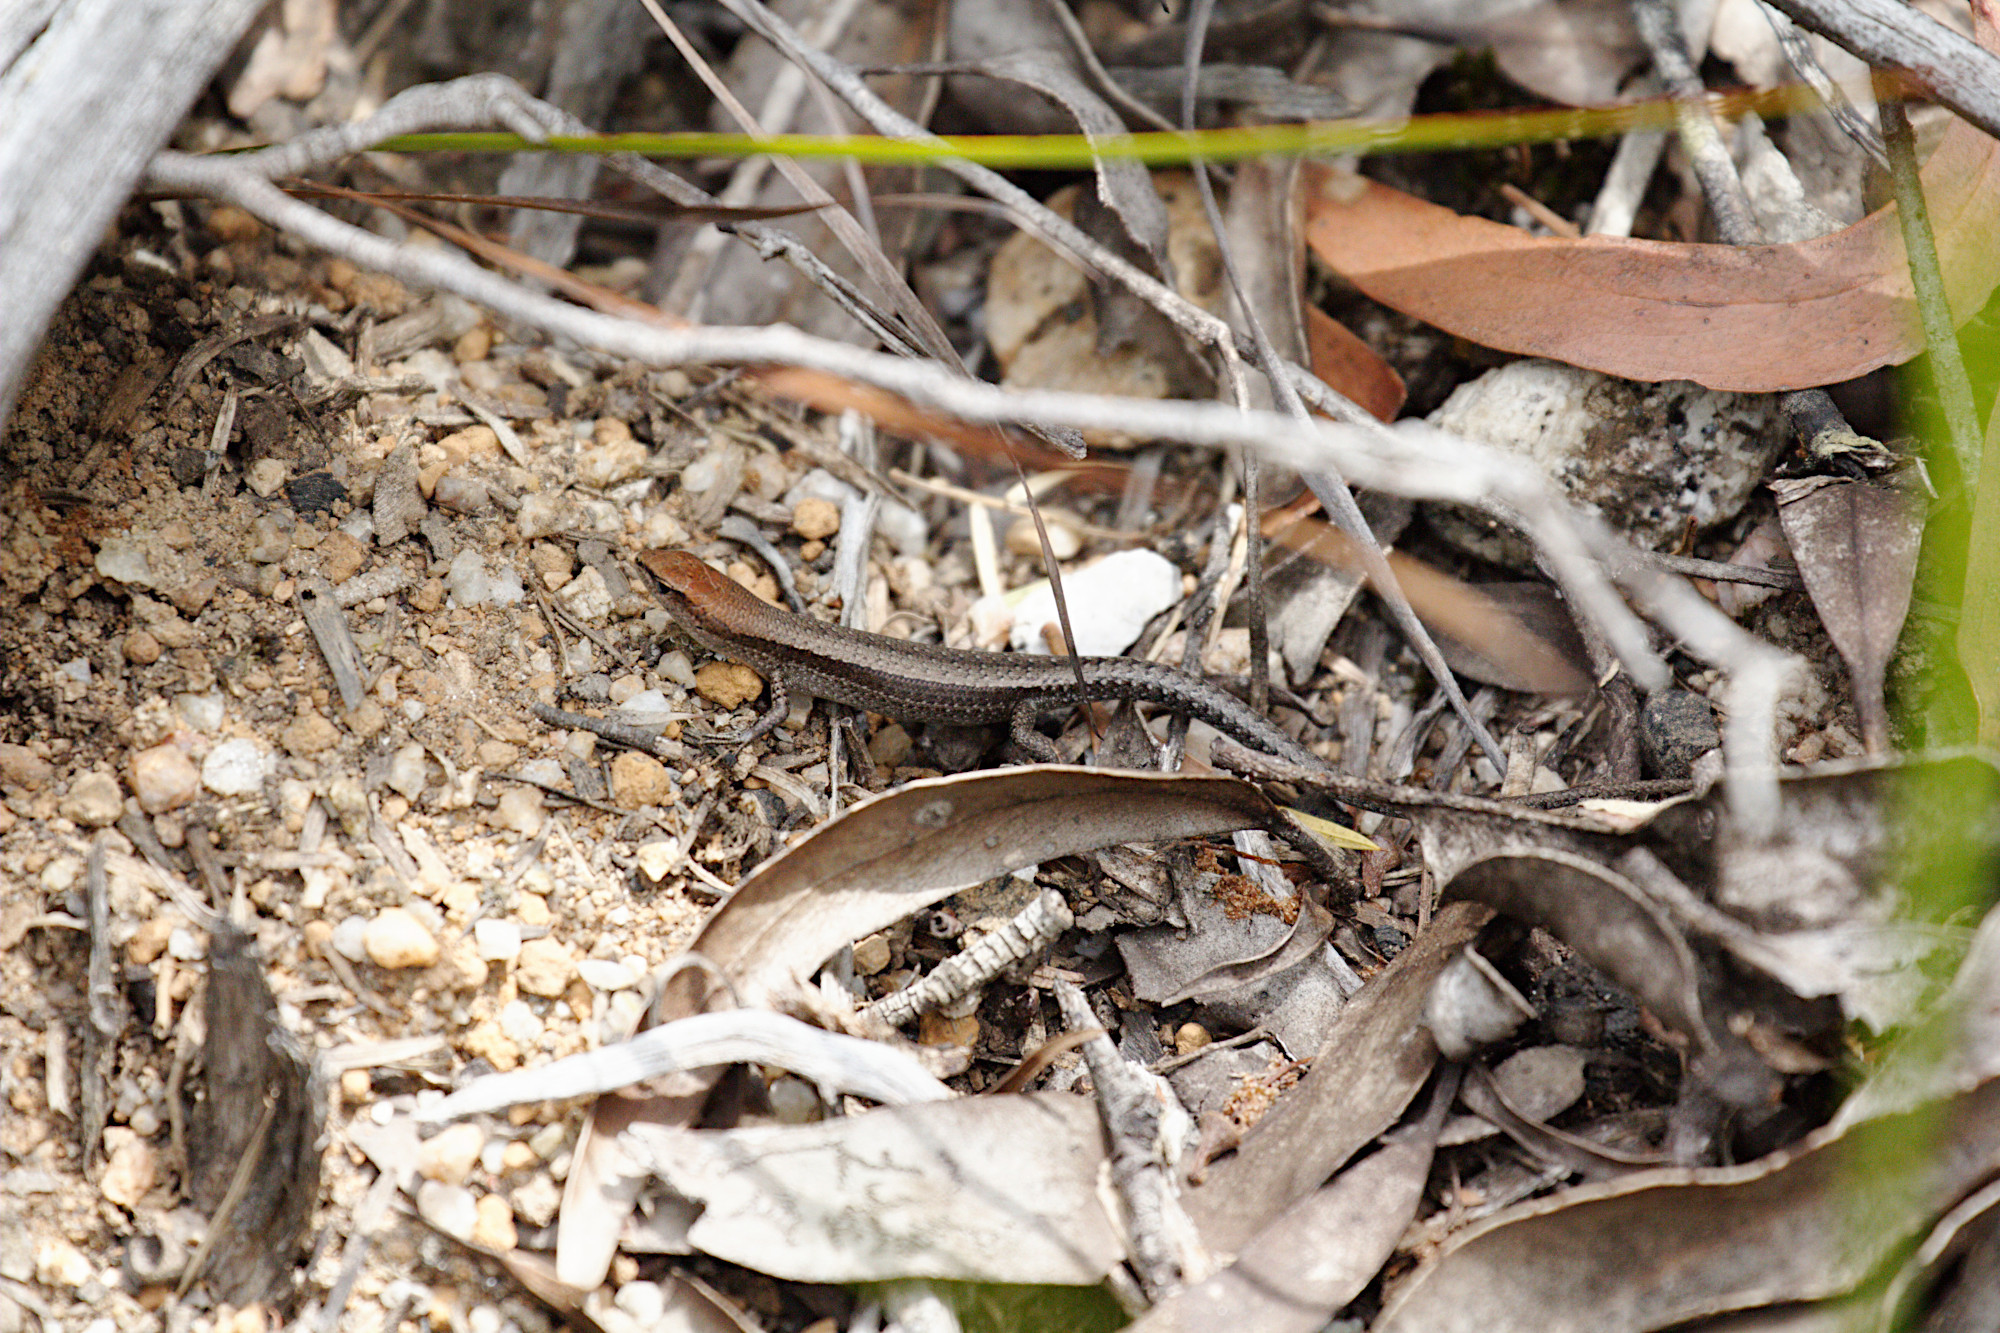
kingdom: Animalia
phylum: Chordata
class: Squamata
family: Scincidae
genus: Lampropholis
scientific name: Lampropholis guichenoti
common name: Garden skink
